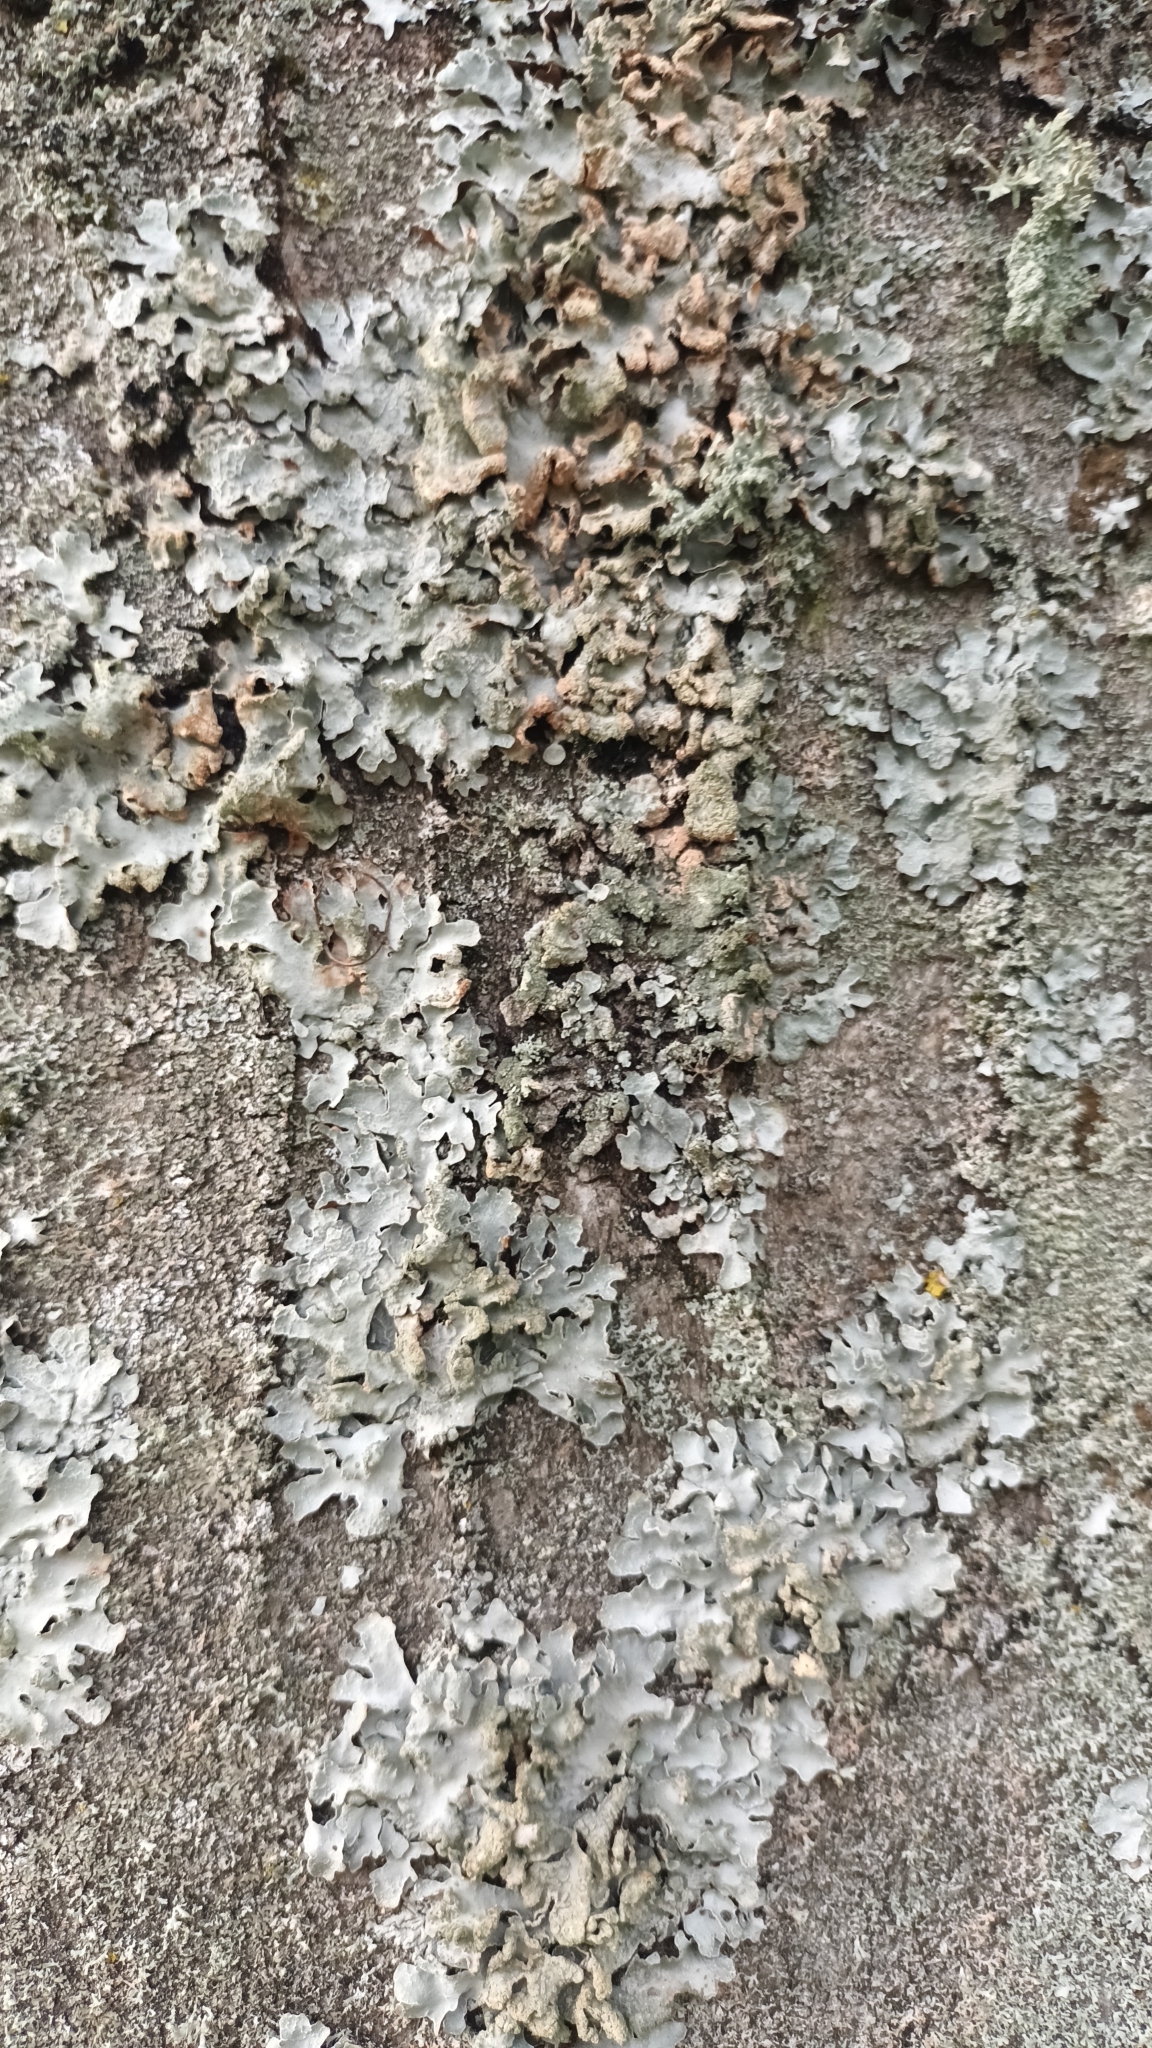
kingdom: Fungi
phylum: Ascomycota
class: Lecanoromycetes
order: Lecanorales
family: Parmeliaceae
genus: Parmelia
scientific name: Parmelia sulcata
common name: Netted shield lichen
